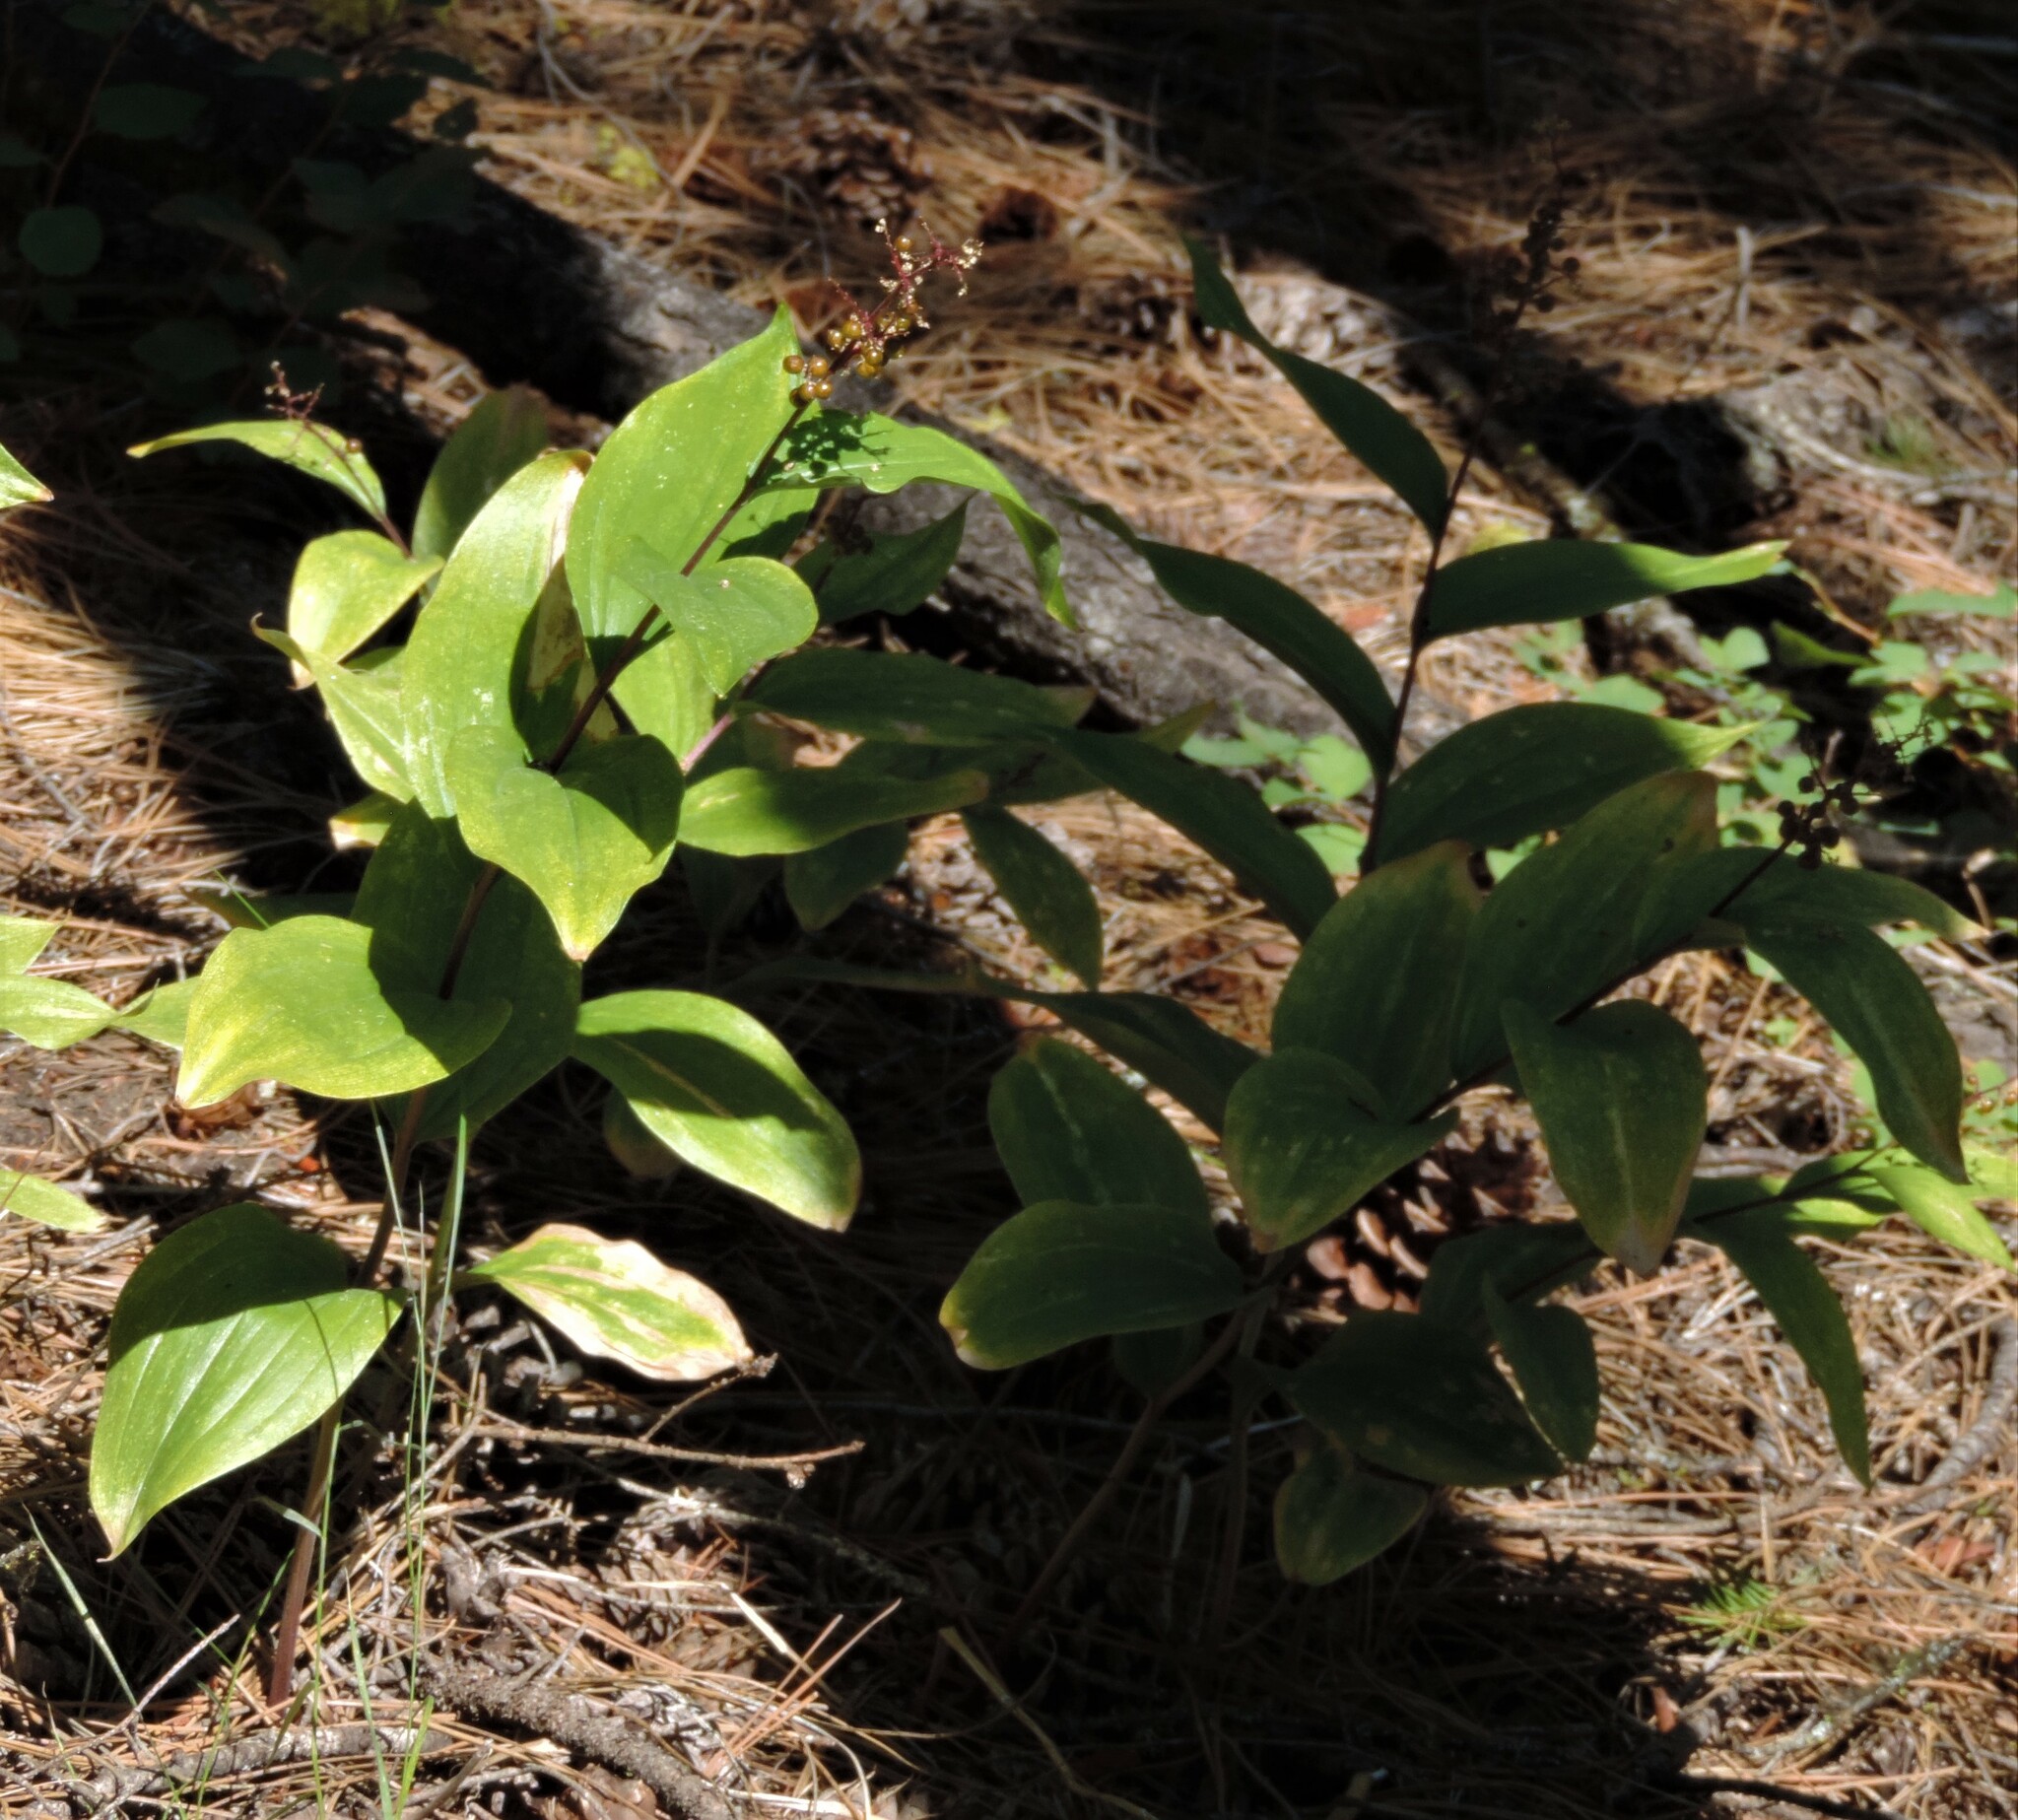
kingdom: Plantae
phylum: Tracheophyta
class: Liliopsida
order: Asparagales
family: Asparagaceae
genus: Maianthemum
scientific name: Maianthemum racemosum
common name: False spikenard
